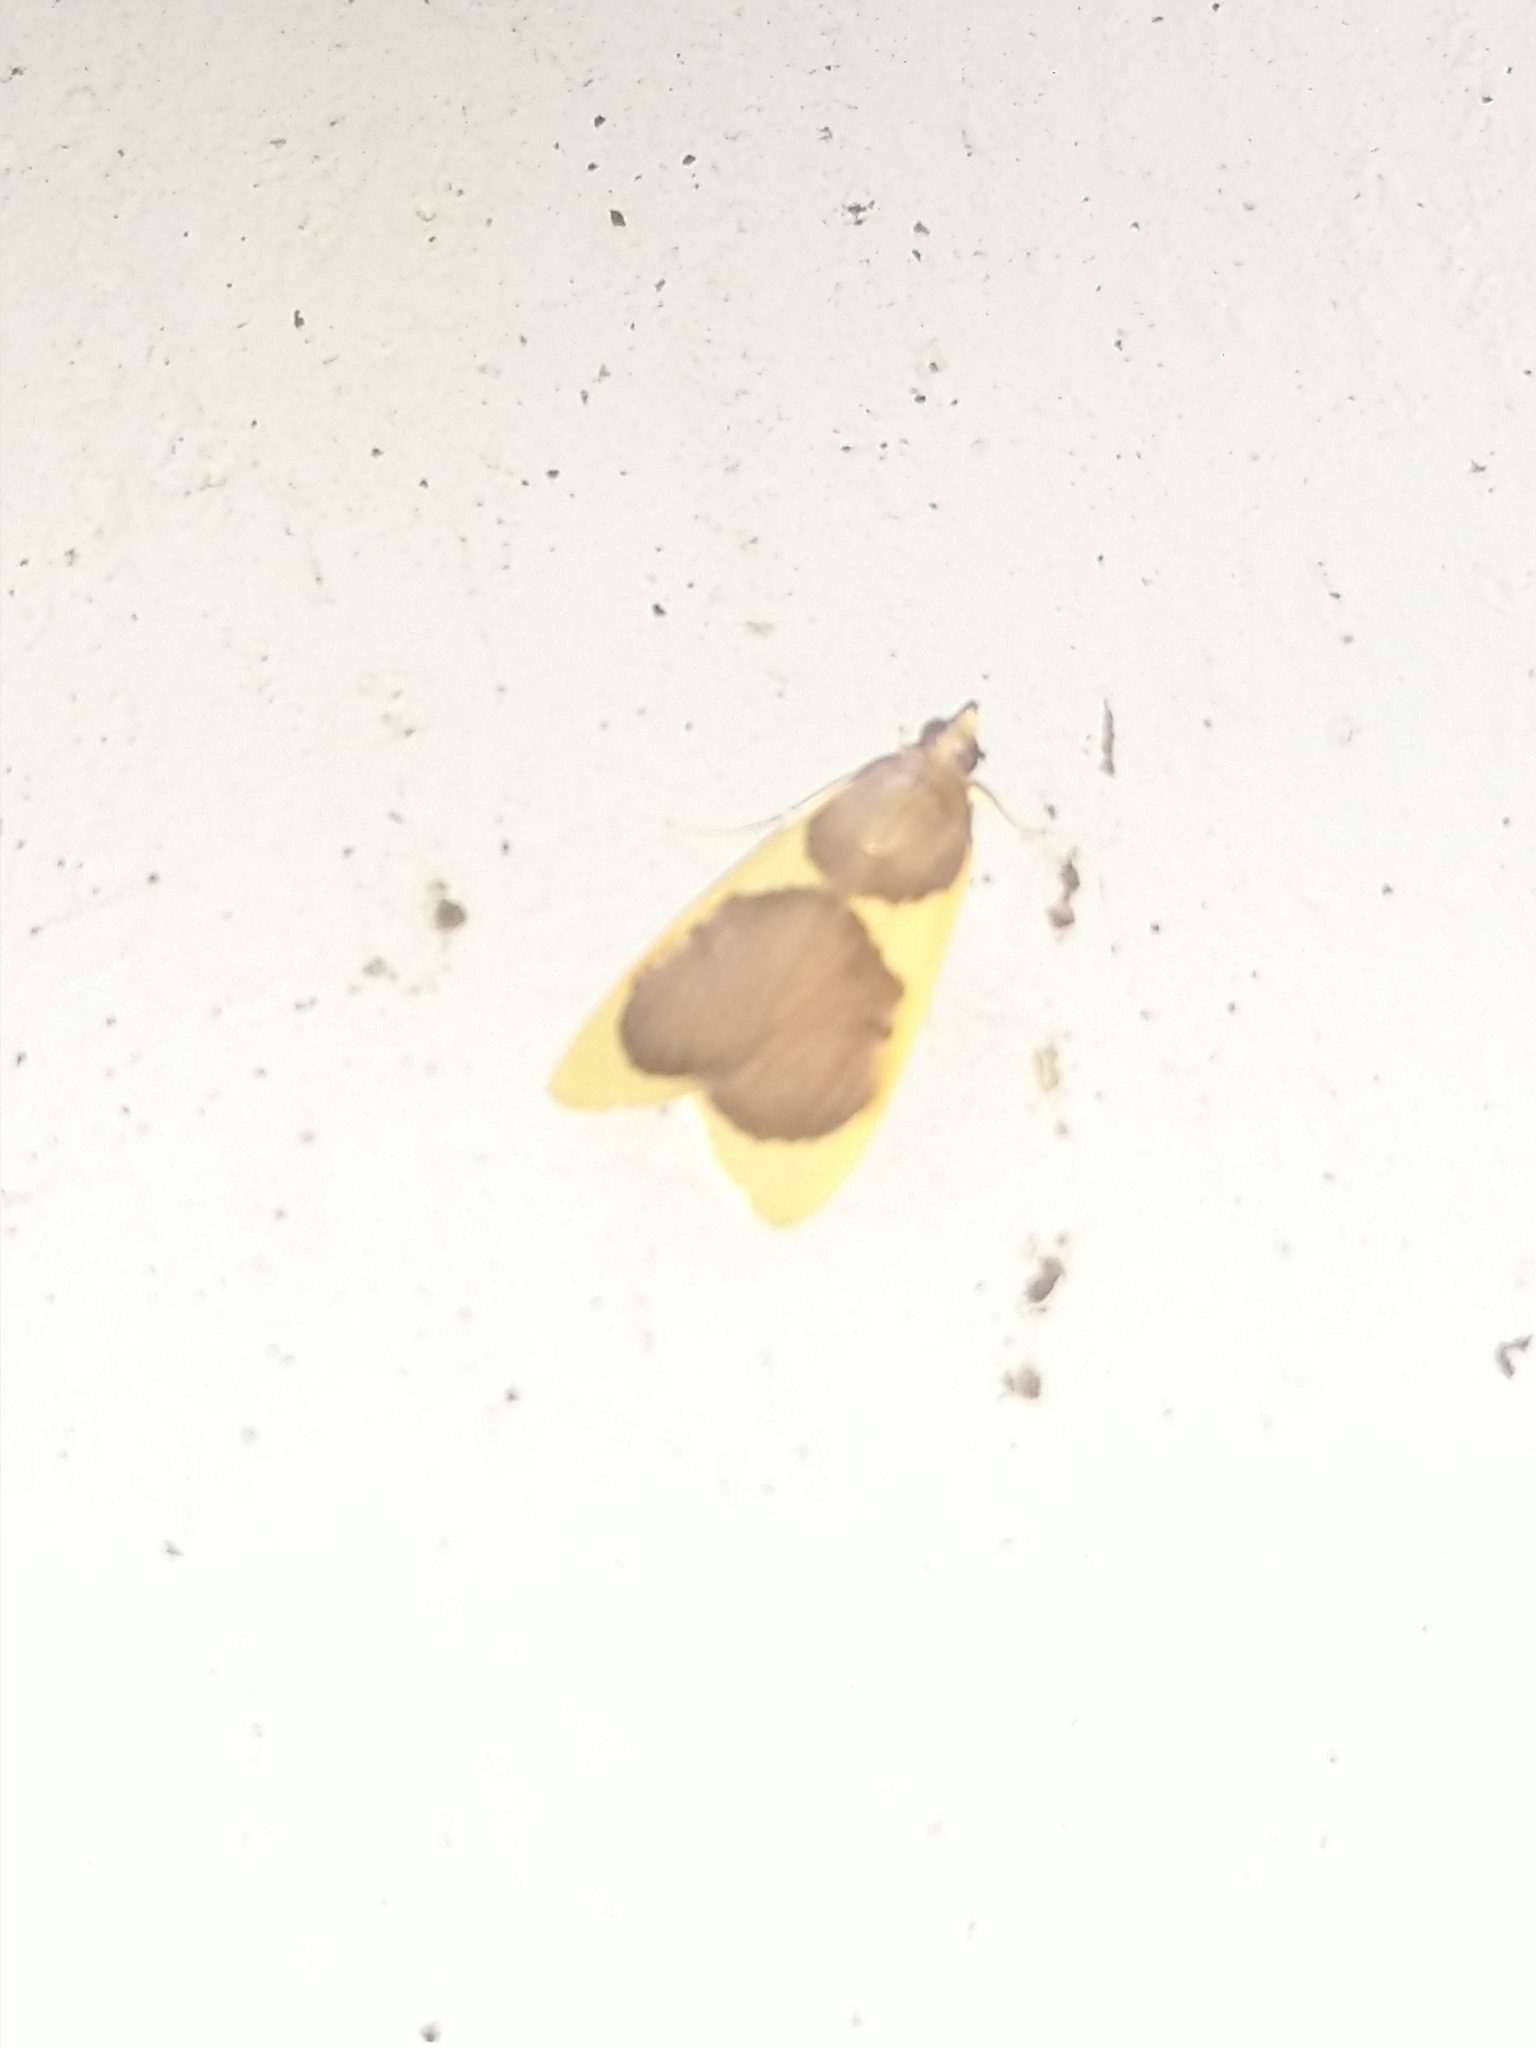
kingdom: Animalia
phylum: Arthropoda
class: Insecta
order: Lepidoptera
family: Crambidae
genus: Prooedema
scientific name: Prooedema inscisalis
